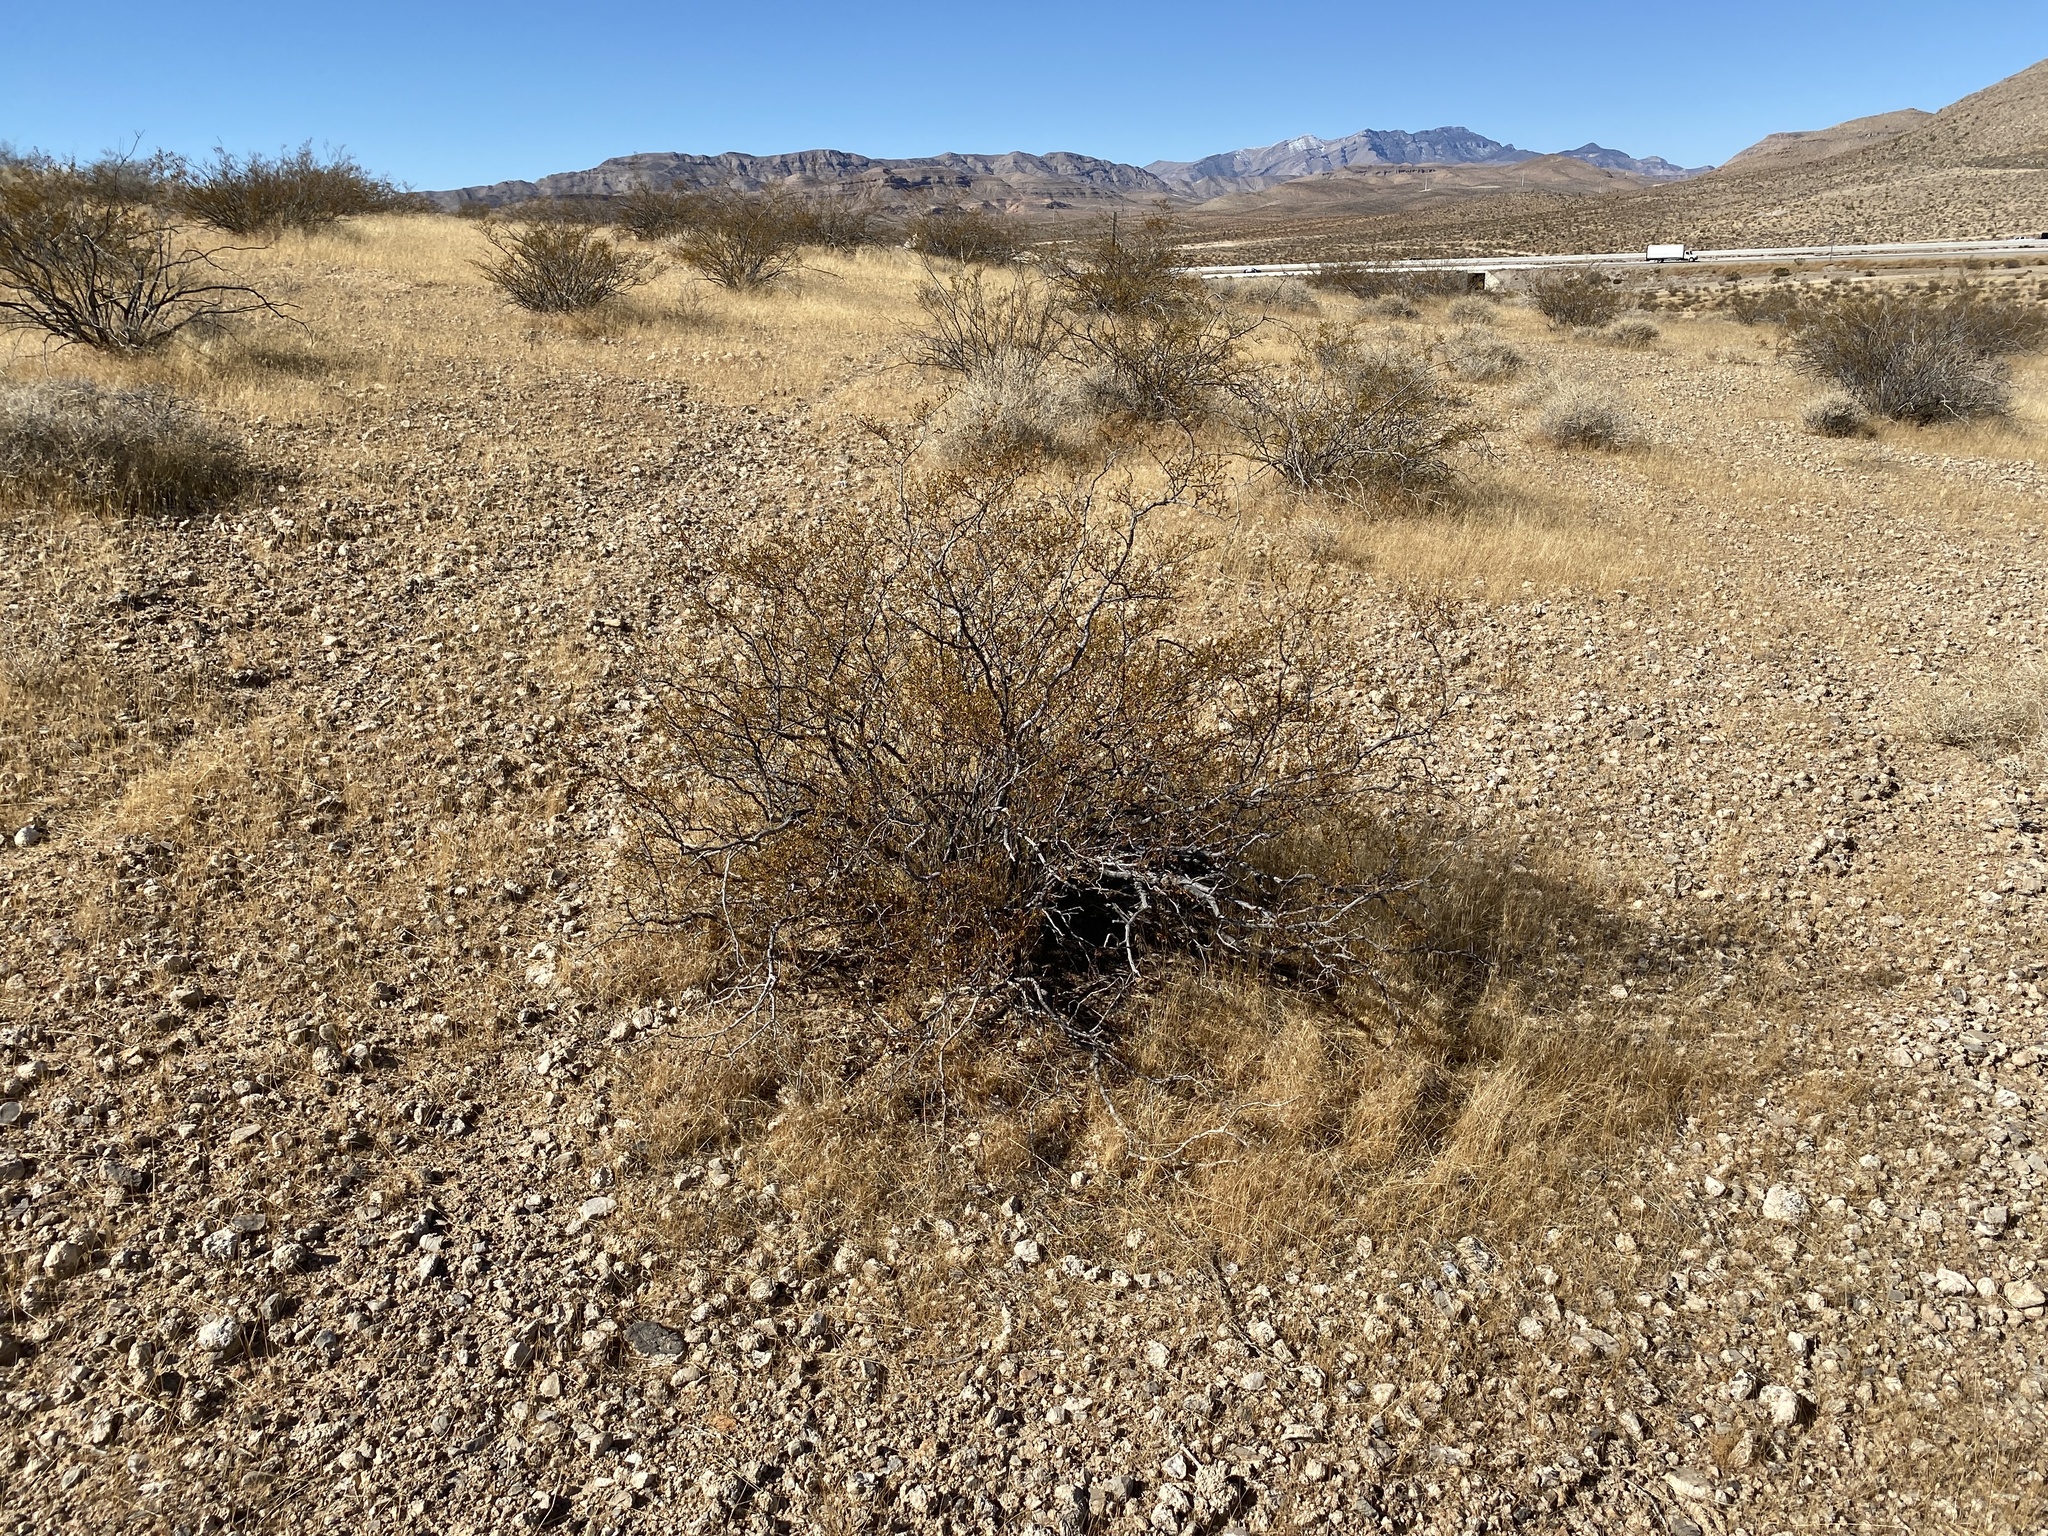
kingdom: Plantae
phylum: Tracheophyta
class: Magnoliopsida
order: Zygophyllales
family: Zygophyllaceae
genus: Larrea
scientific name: Larrea tridentata
